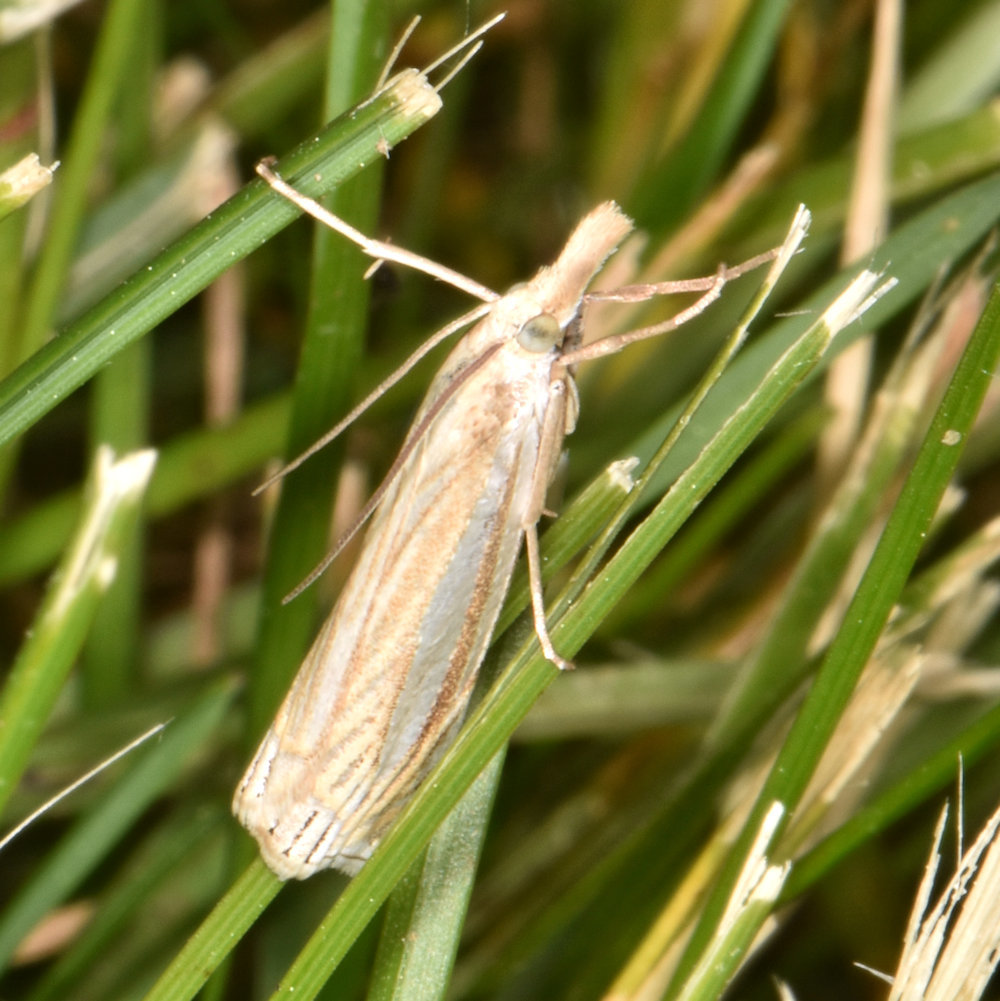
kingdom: Animalia
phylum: Arthropoda
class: Insecta
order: Lepidoptera
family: Crambidae
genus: Crambus
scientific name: Crambus laqueatellus
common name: Eastern grass-veneer
